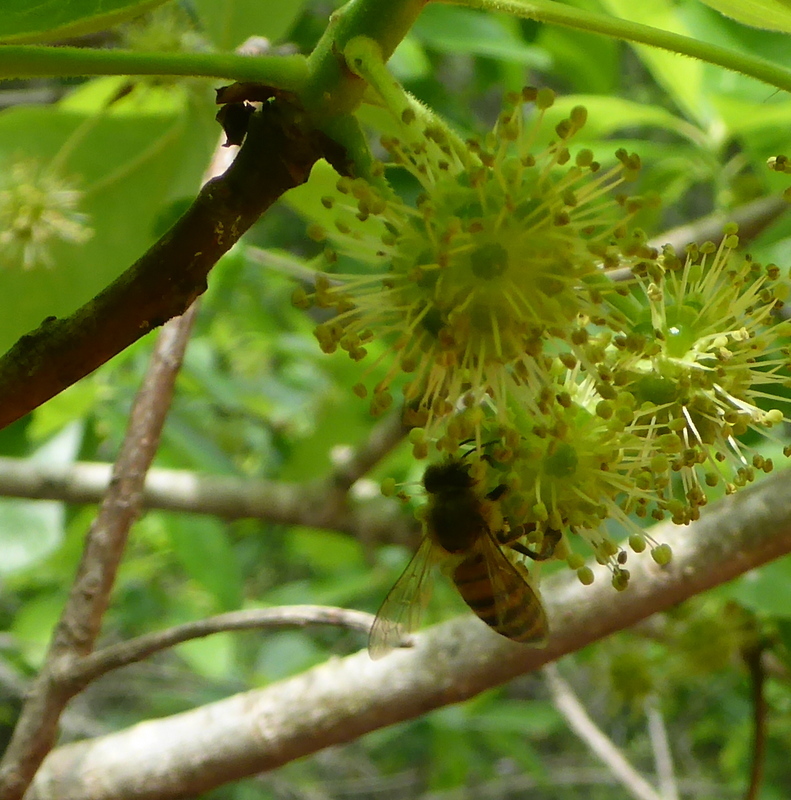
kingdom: Animalia
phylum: Arthropoda
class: Insecta
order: Hymenoptera
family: Apidae
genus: Apis
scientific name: Apis mellifera
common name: Honey bee
